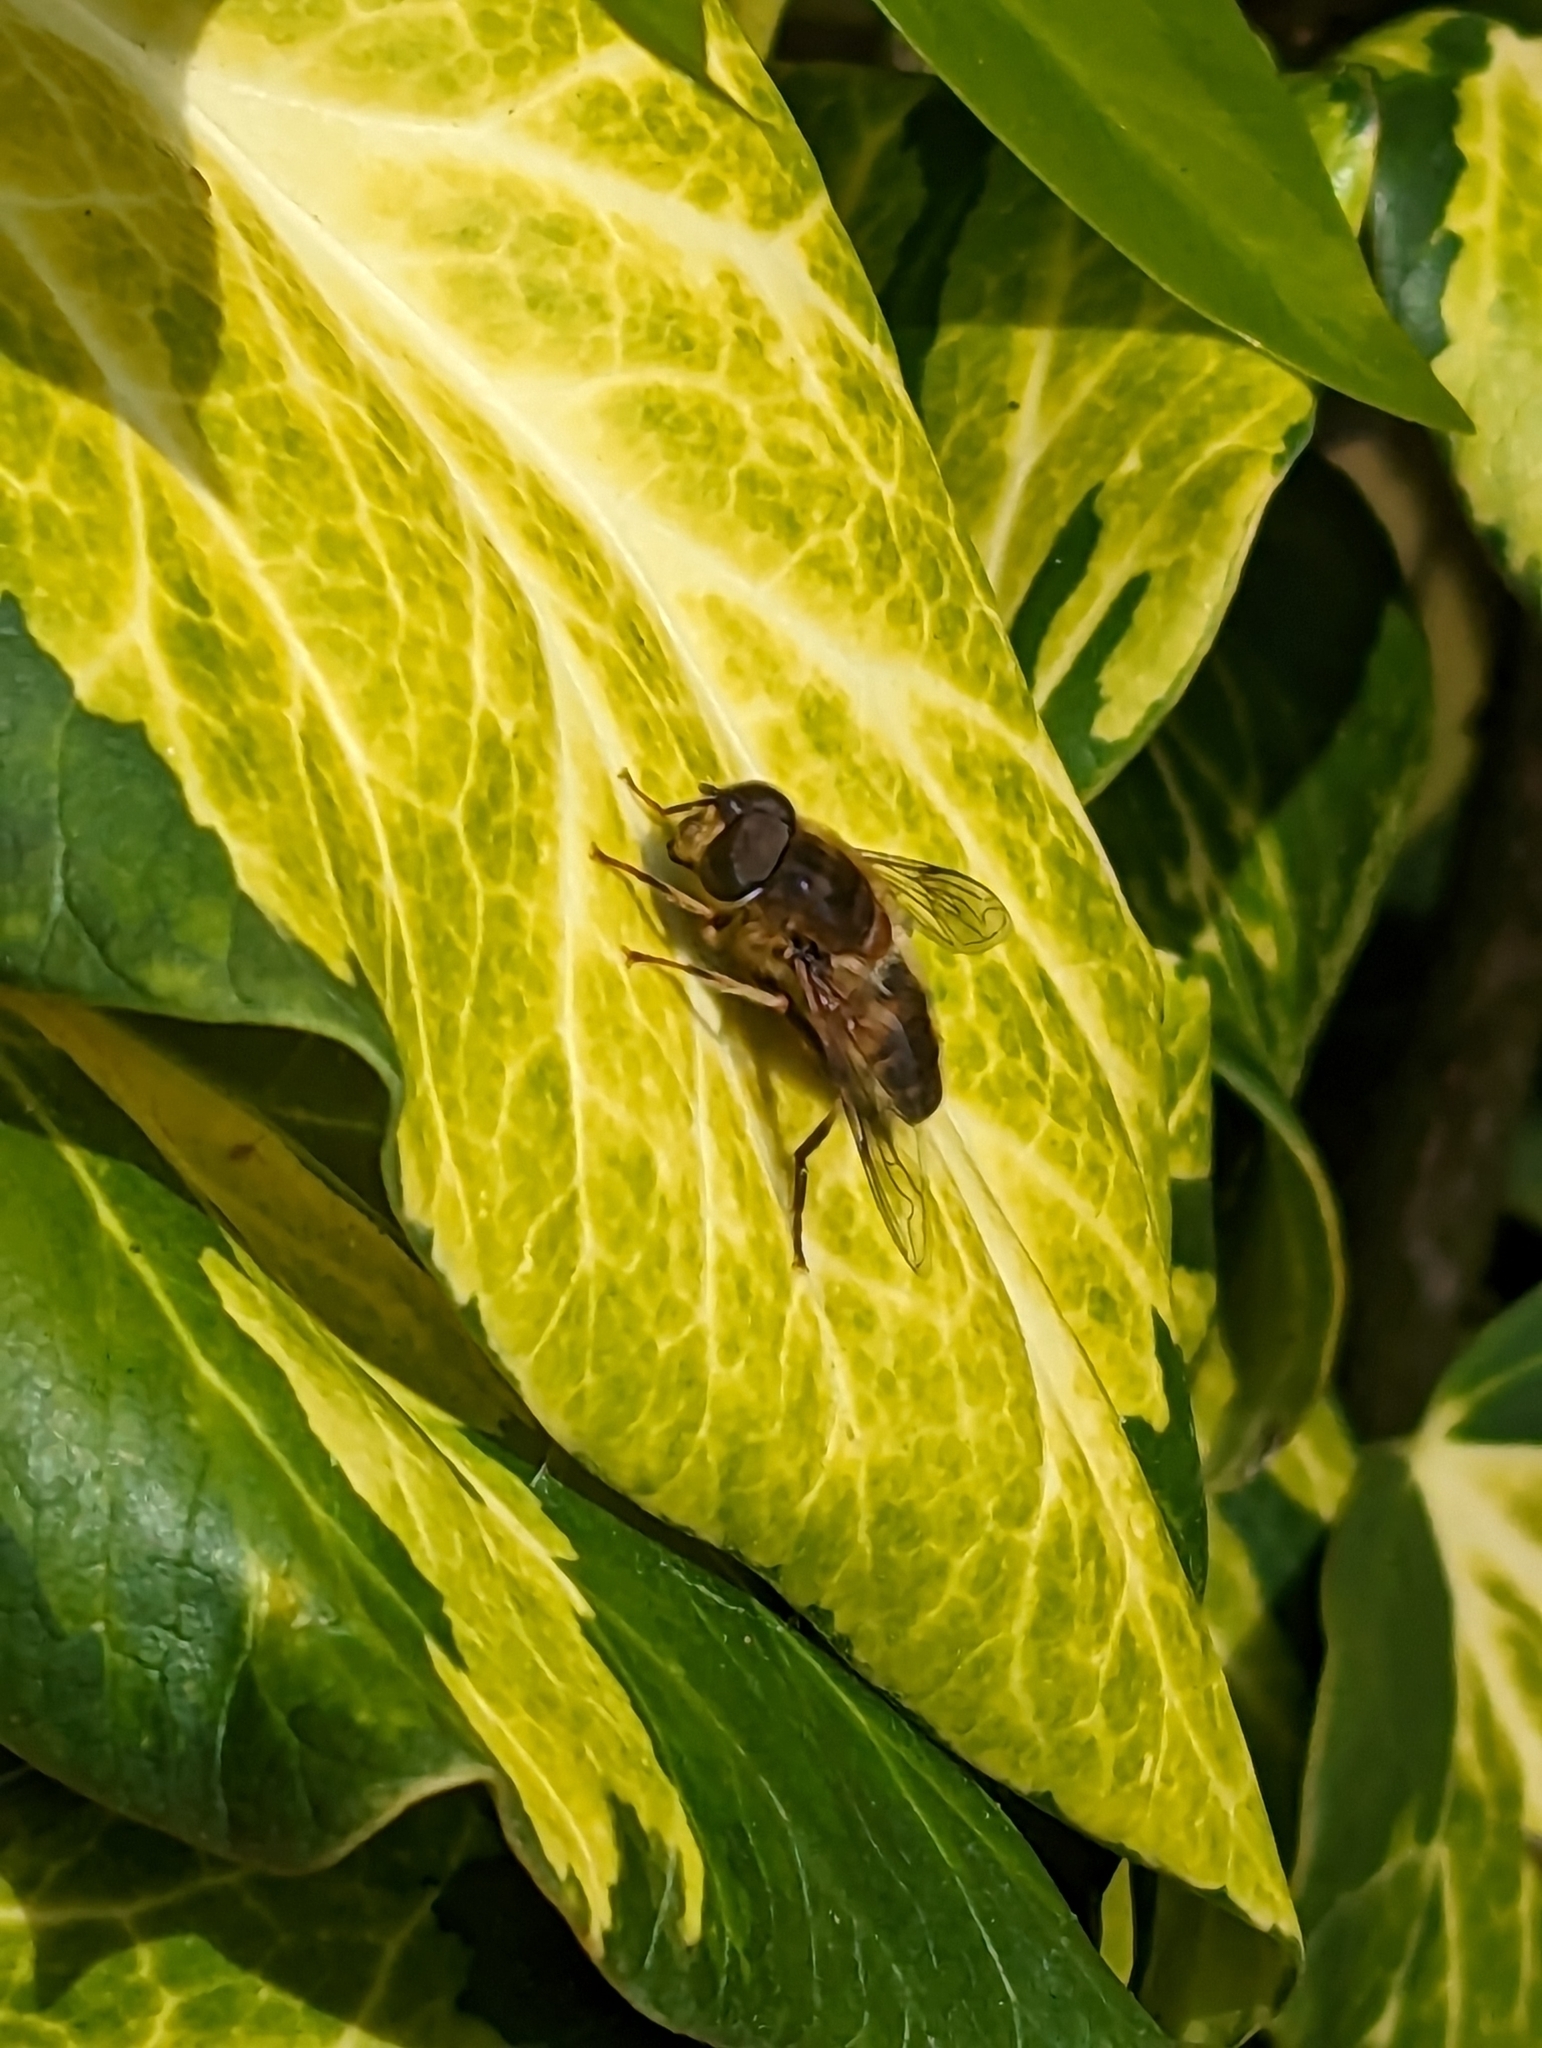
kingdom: Animalia
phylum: Arthropoda
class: Insecta
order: Diptera
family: Syrphidae
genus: Eristalis
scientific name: Eristalis pertinax
